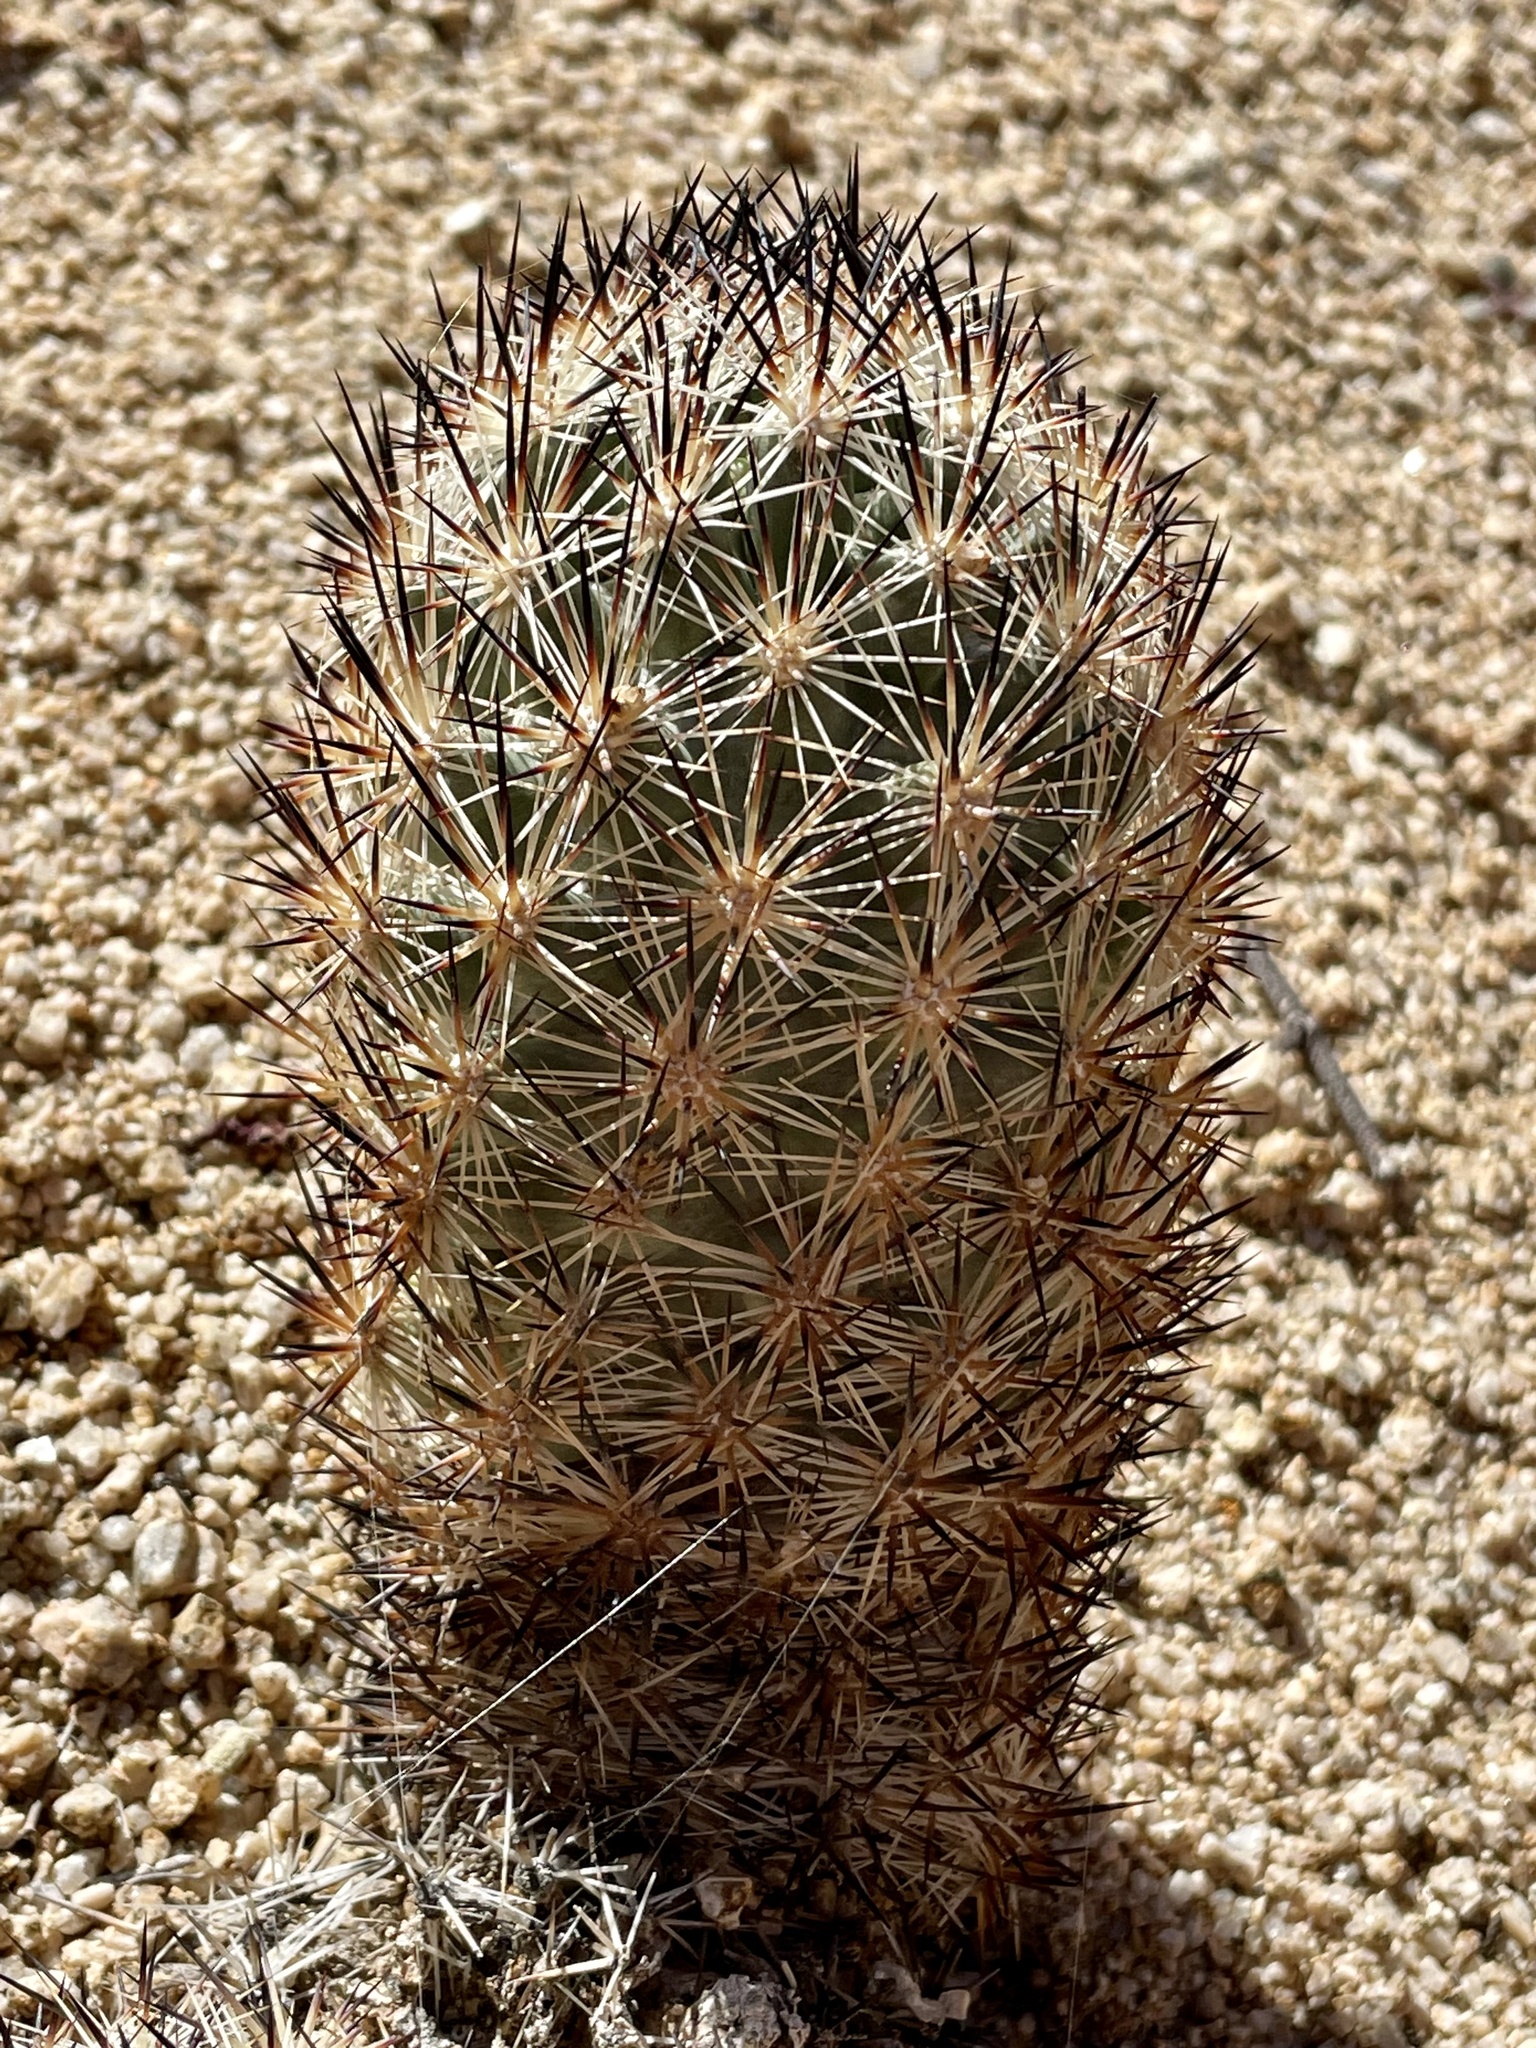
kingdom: Plantae
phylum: Tracheophyta
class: Magnoliopsida
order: Caryophyllales
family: Cactaceae
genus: Pelecyphora
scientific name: Pelecyphora alversonii
